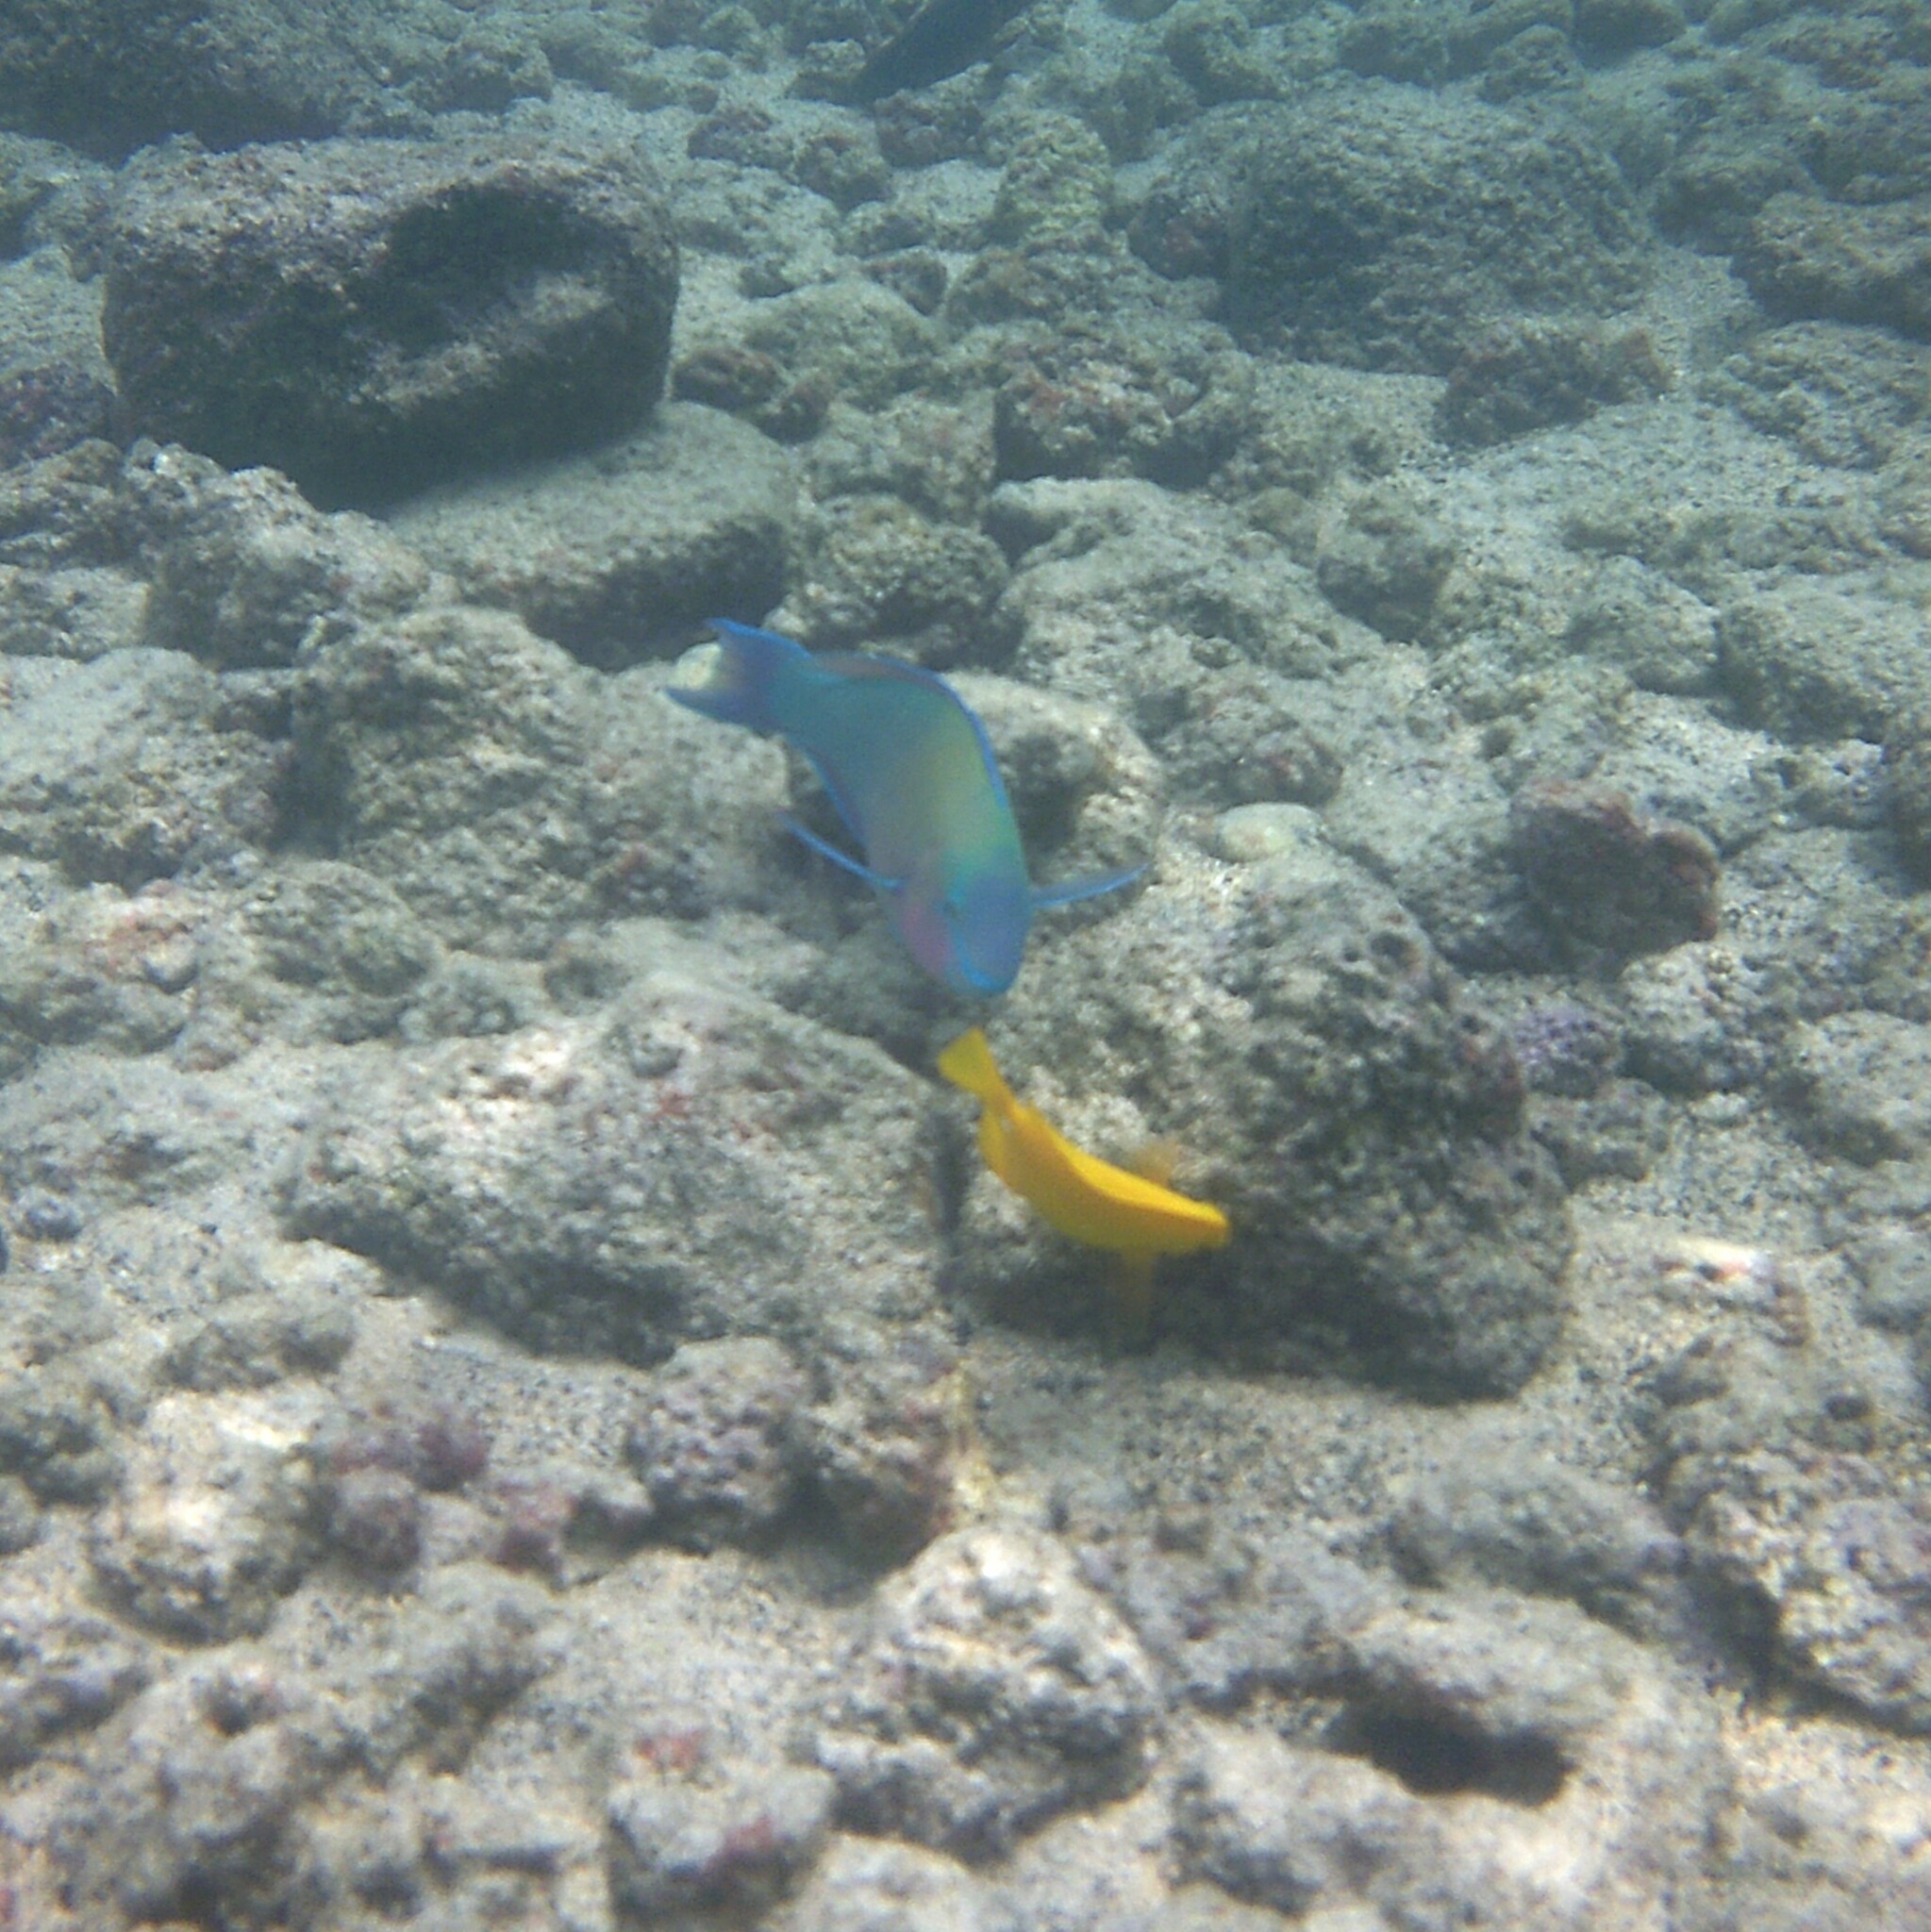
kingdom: Animalia
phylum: Chordata
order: Perciformes
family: Scaridae
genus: Scarus
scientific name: Scarus psittacus
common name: Palenose parrotfish
